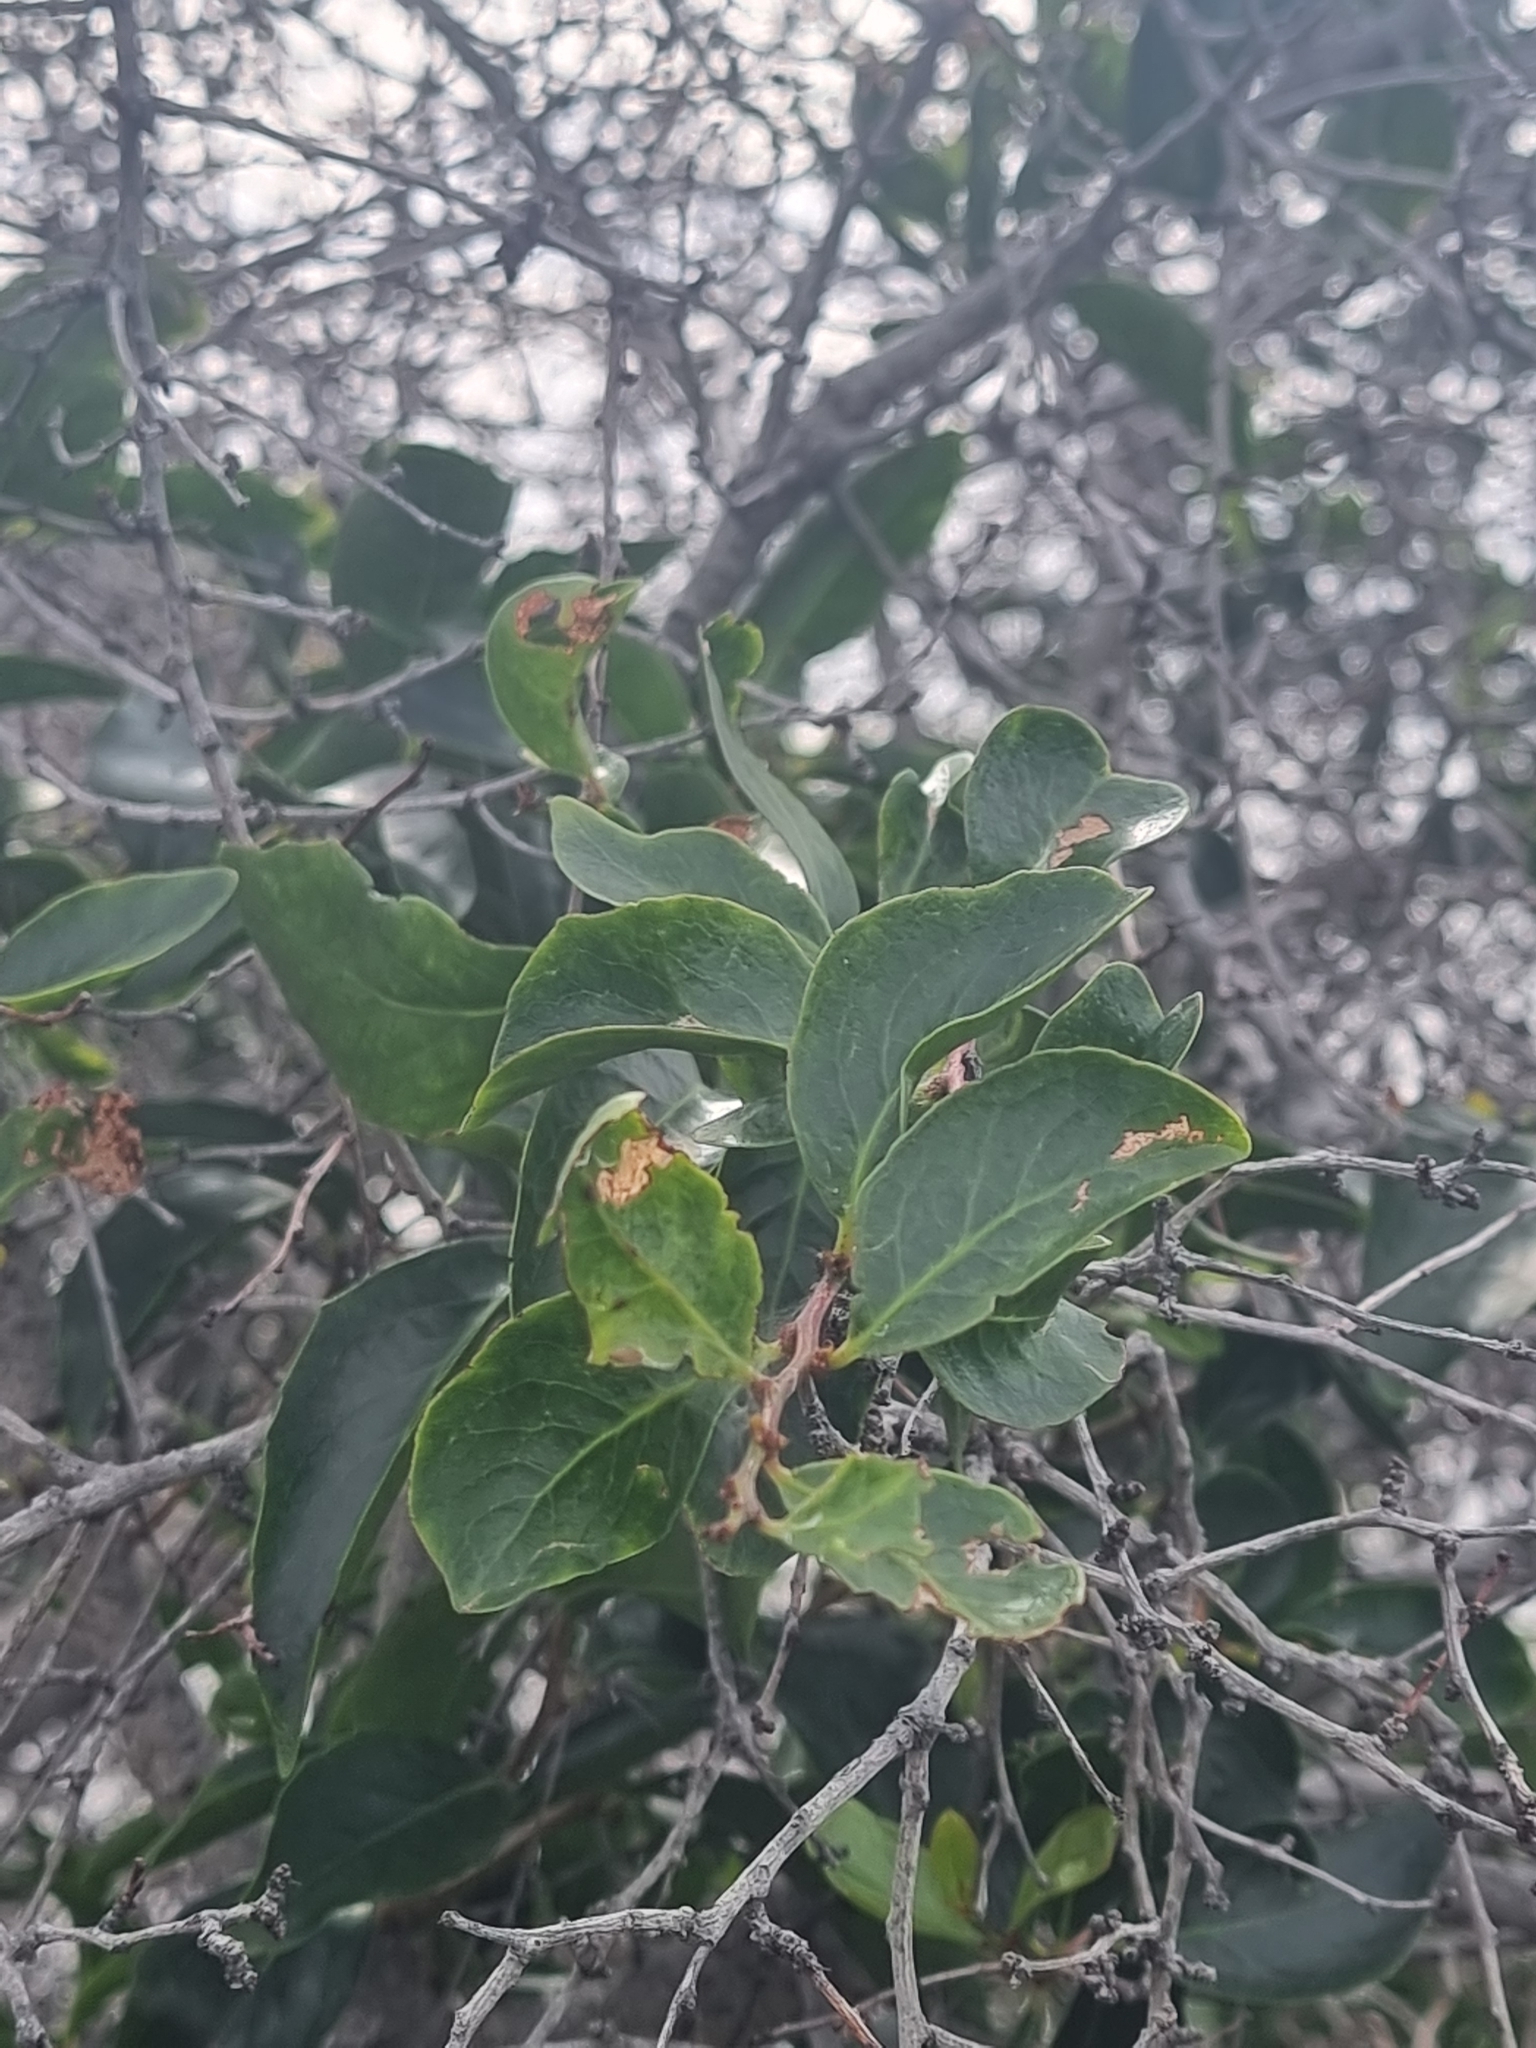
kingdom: Plantae
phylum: Tracheophyta
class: Magnoliopsida
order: Celastrales
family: Celastraceae
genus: Gymnosporia
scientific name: Gymnosporia dryandri
